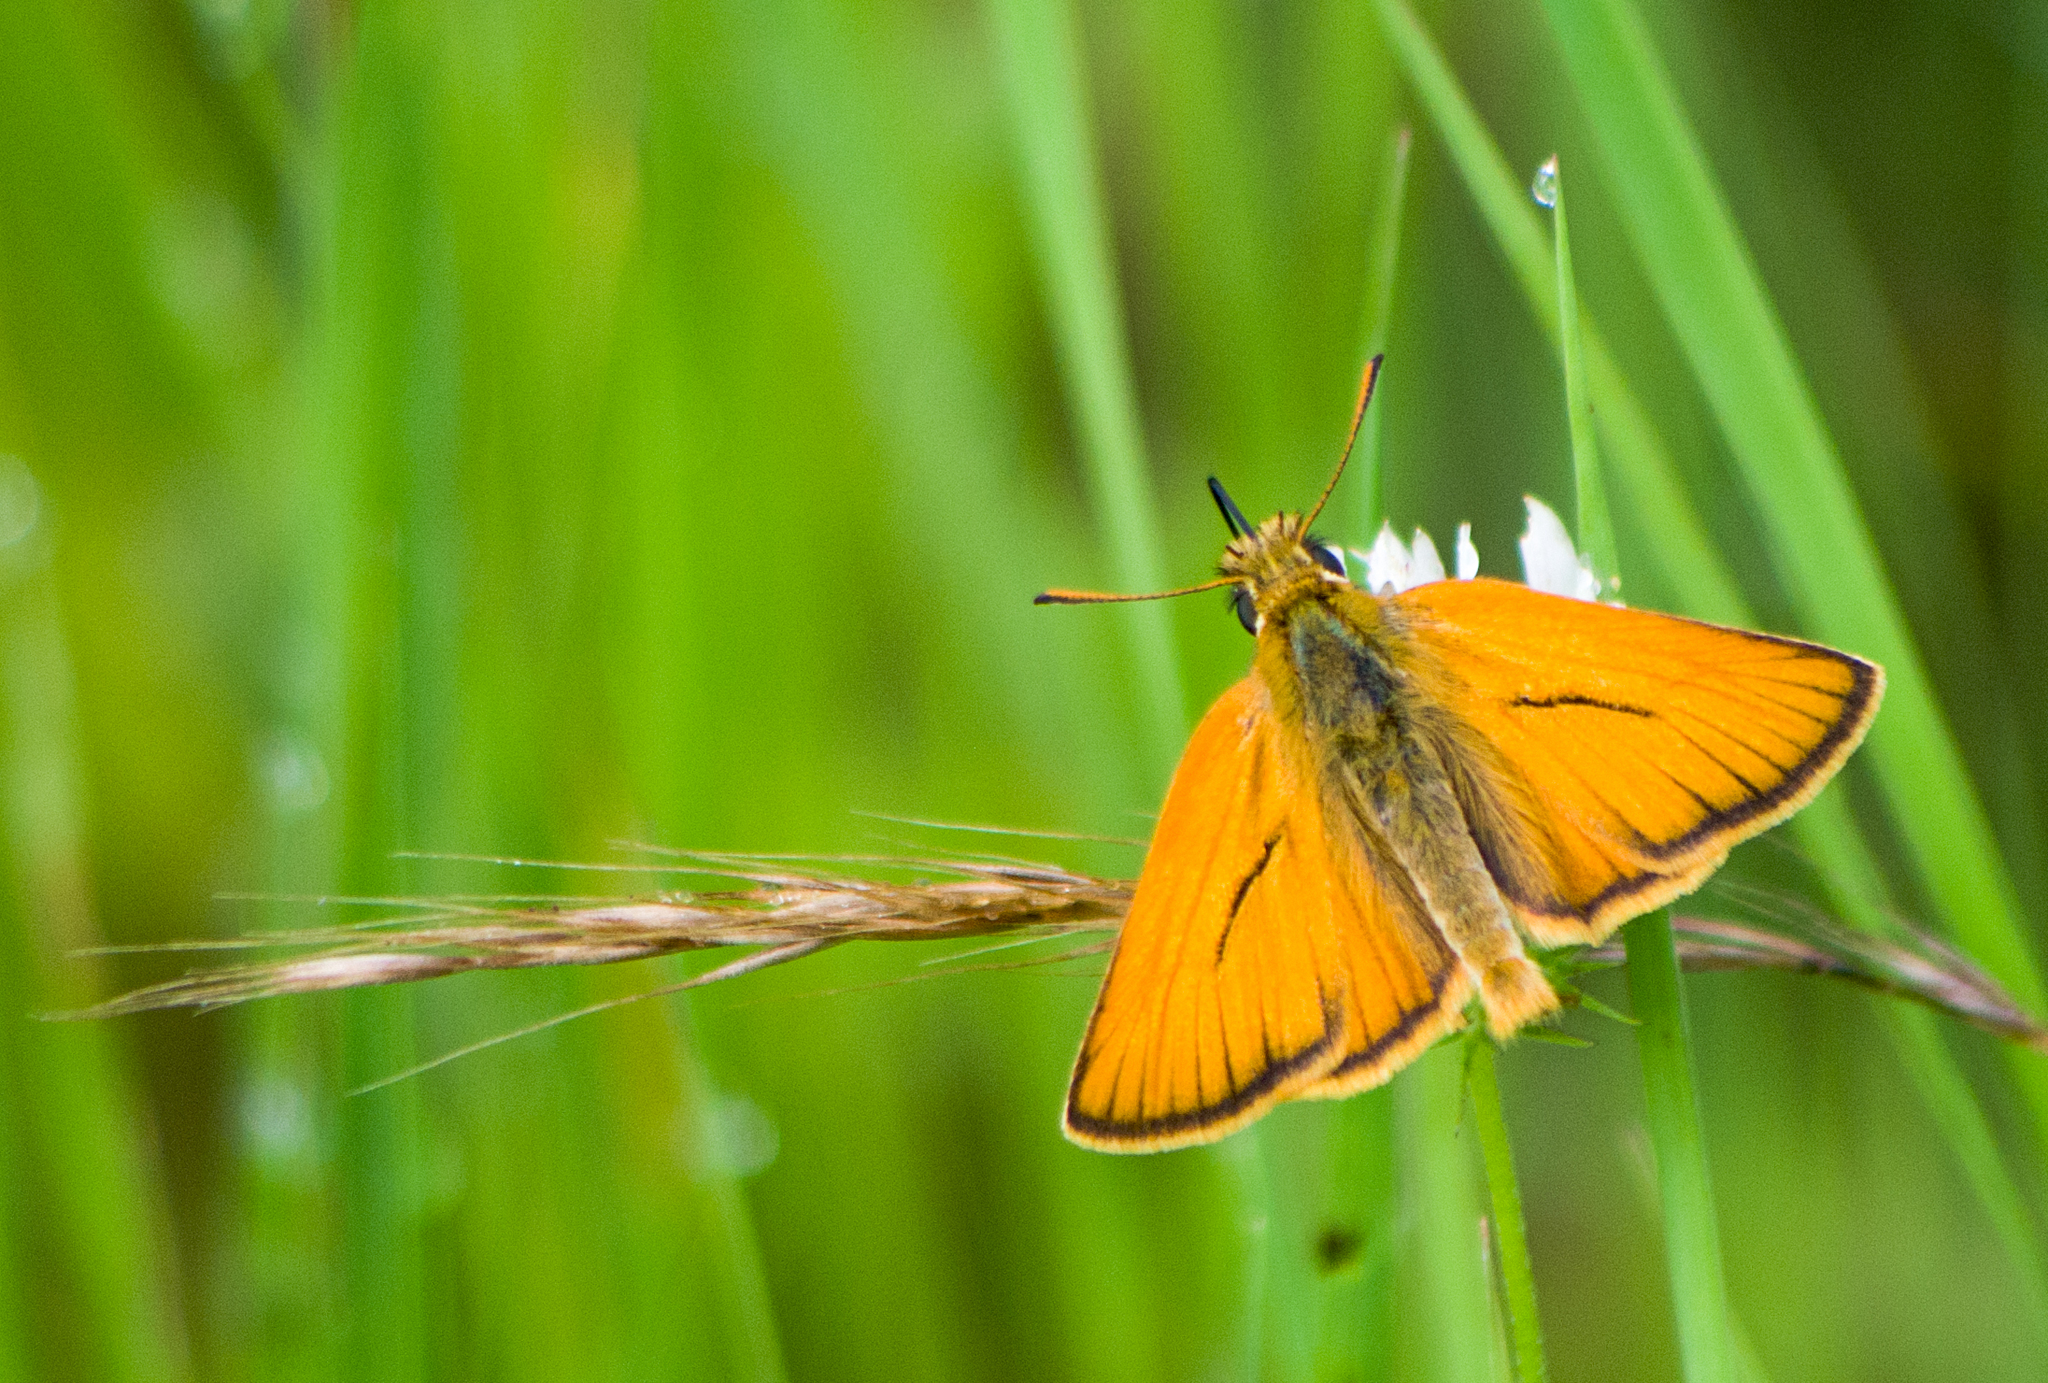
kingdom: Animalia
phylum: Arthropoda
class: Insecta
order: Lepidoptera
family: Hesperiidae
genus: Thymelicus
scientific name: Thymelicus sylvestris
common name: Small skipper
